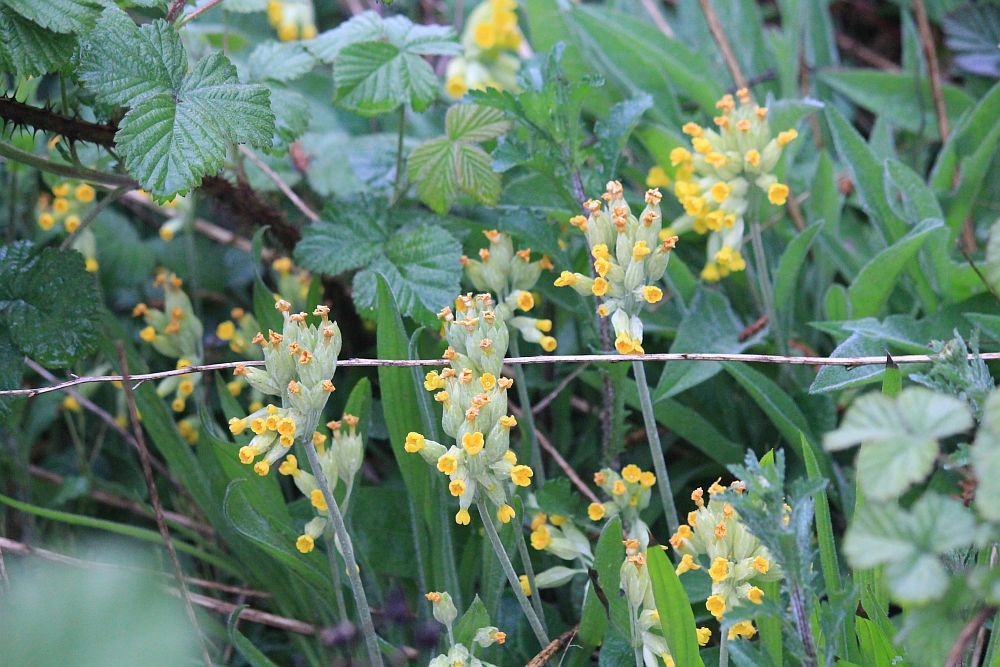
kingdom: Plantae
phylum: Tracheophyta
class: Magnoliopsida
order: Ericales
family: Primulaceae
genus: Primula
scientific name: Primula veris
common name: Cowslip
